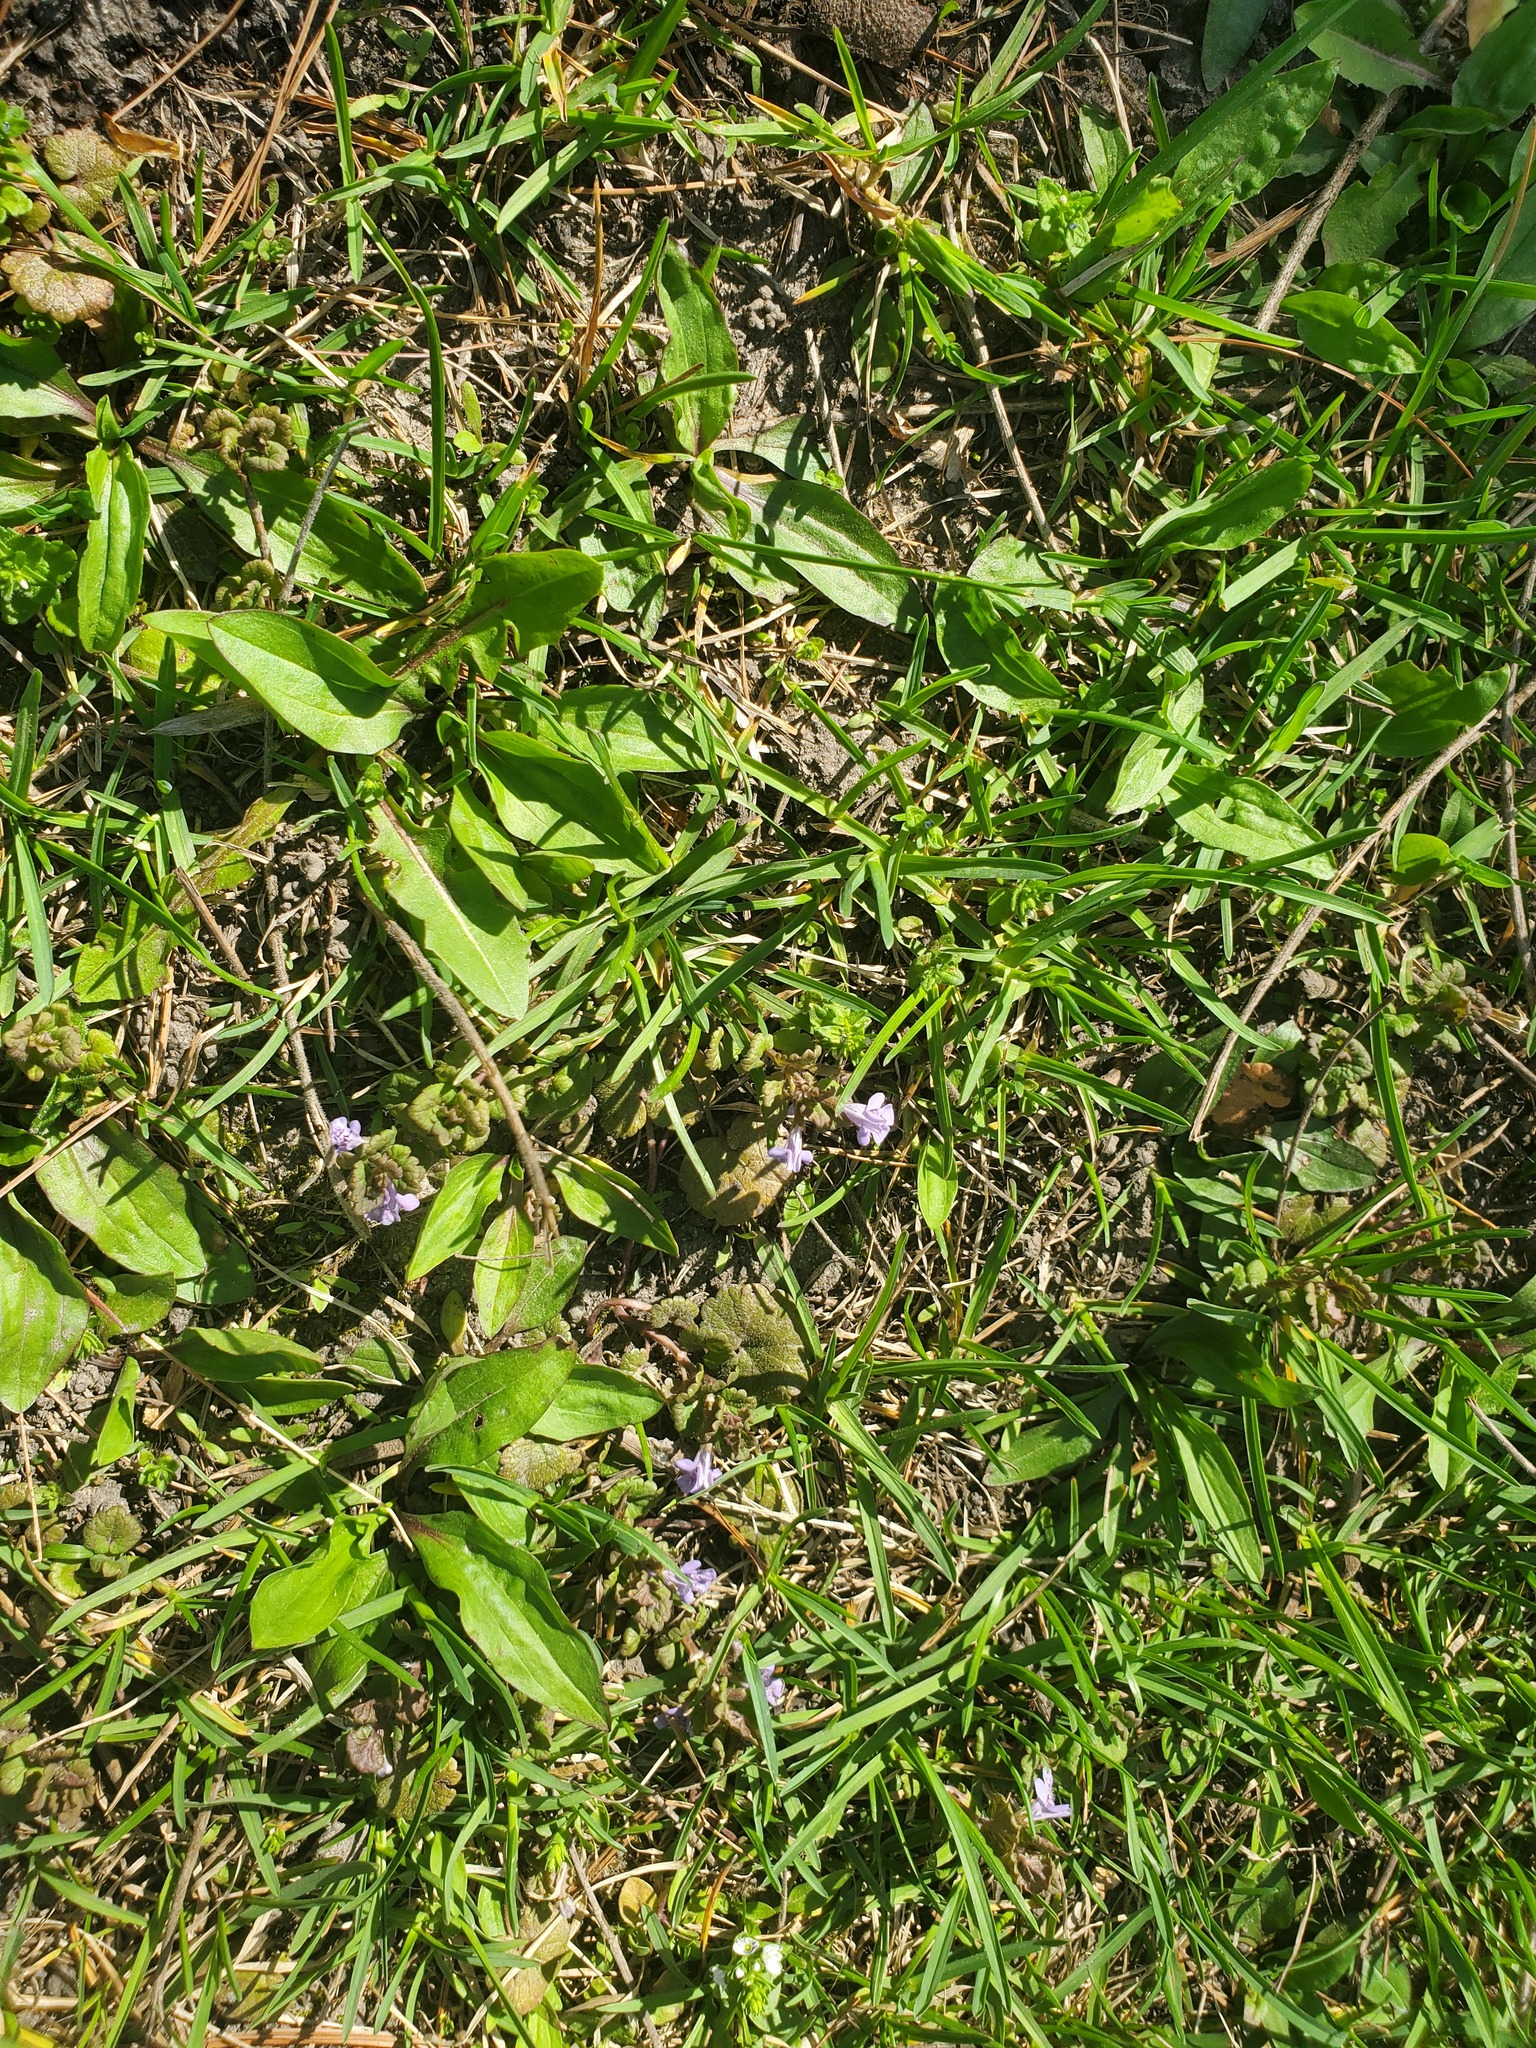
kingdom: Plantae
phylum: Tracheophyta
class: Magnoliopsida
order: Lamiales
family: Lamiaceae
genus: Glechoma
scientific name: Glechoma hederacea
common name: Ground ivy
